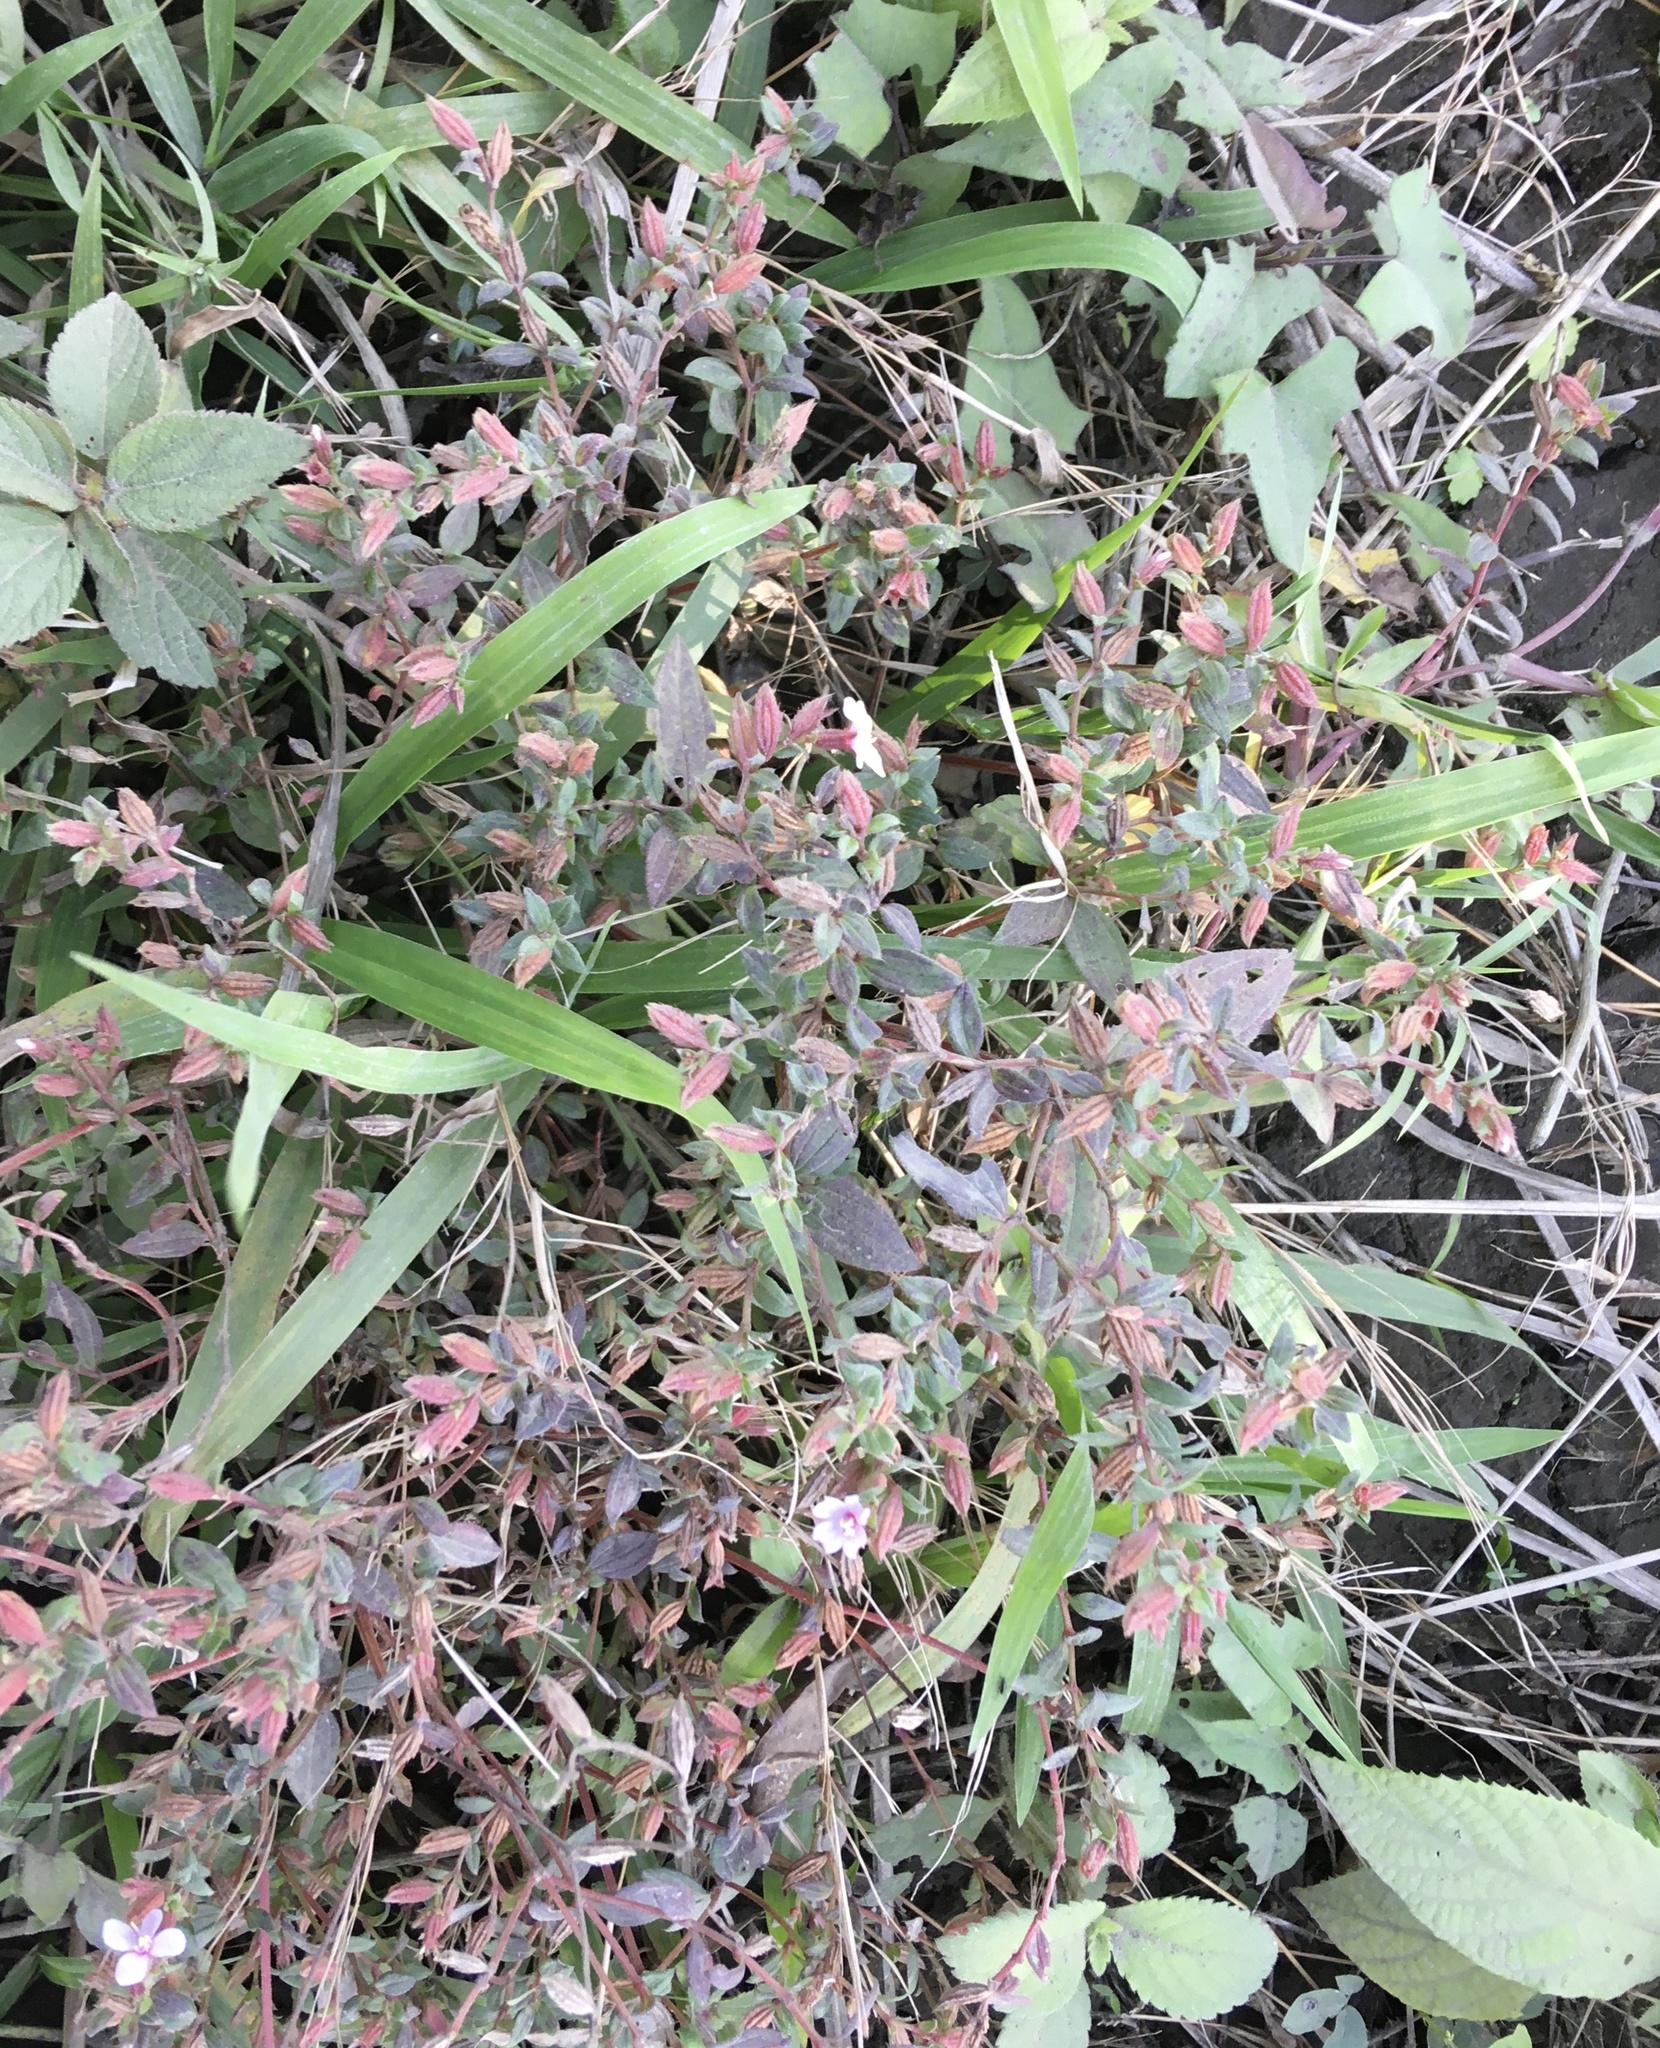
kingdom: Plantae
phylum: Tracheophyta
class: Magnoliopsida
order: Myrtales
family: Melastomataceae
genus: Schwackaea
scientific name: Schwackaea cupheoides
